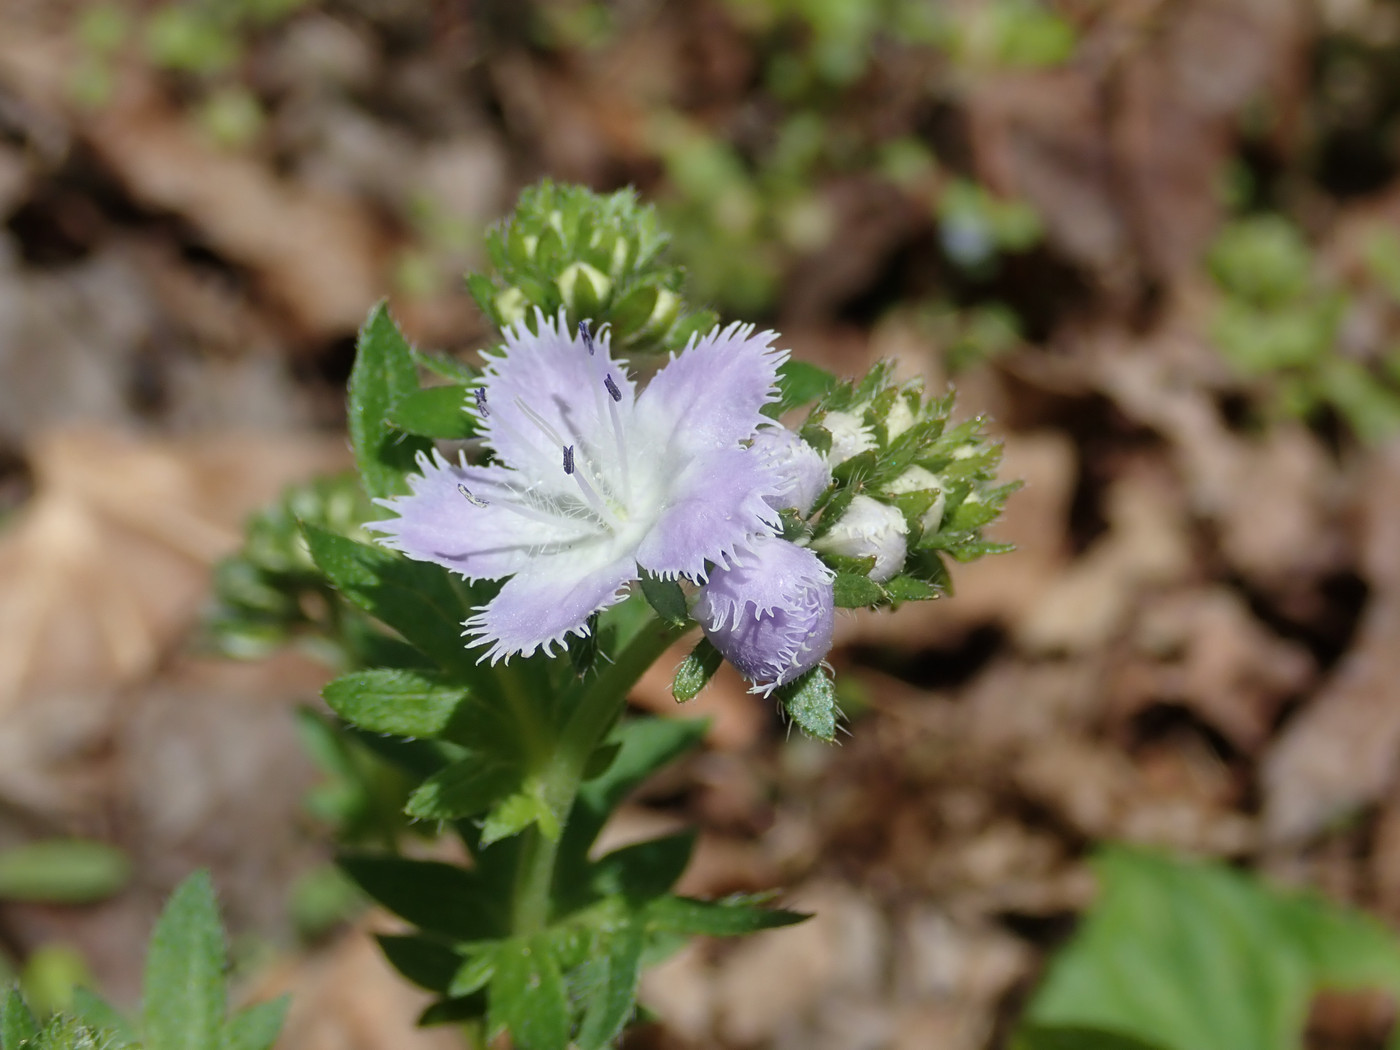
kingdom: Plantae
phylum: Tracheophyta
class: Magnoliopsida
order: Boraginales
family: Hydrophyllaceae
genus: Phacelia
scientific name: Phacelia purshii
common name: Miami-mist
